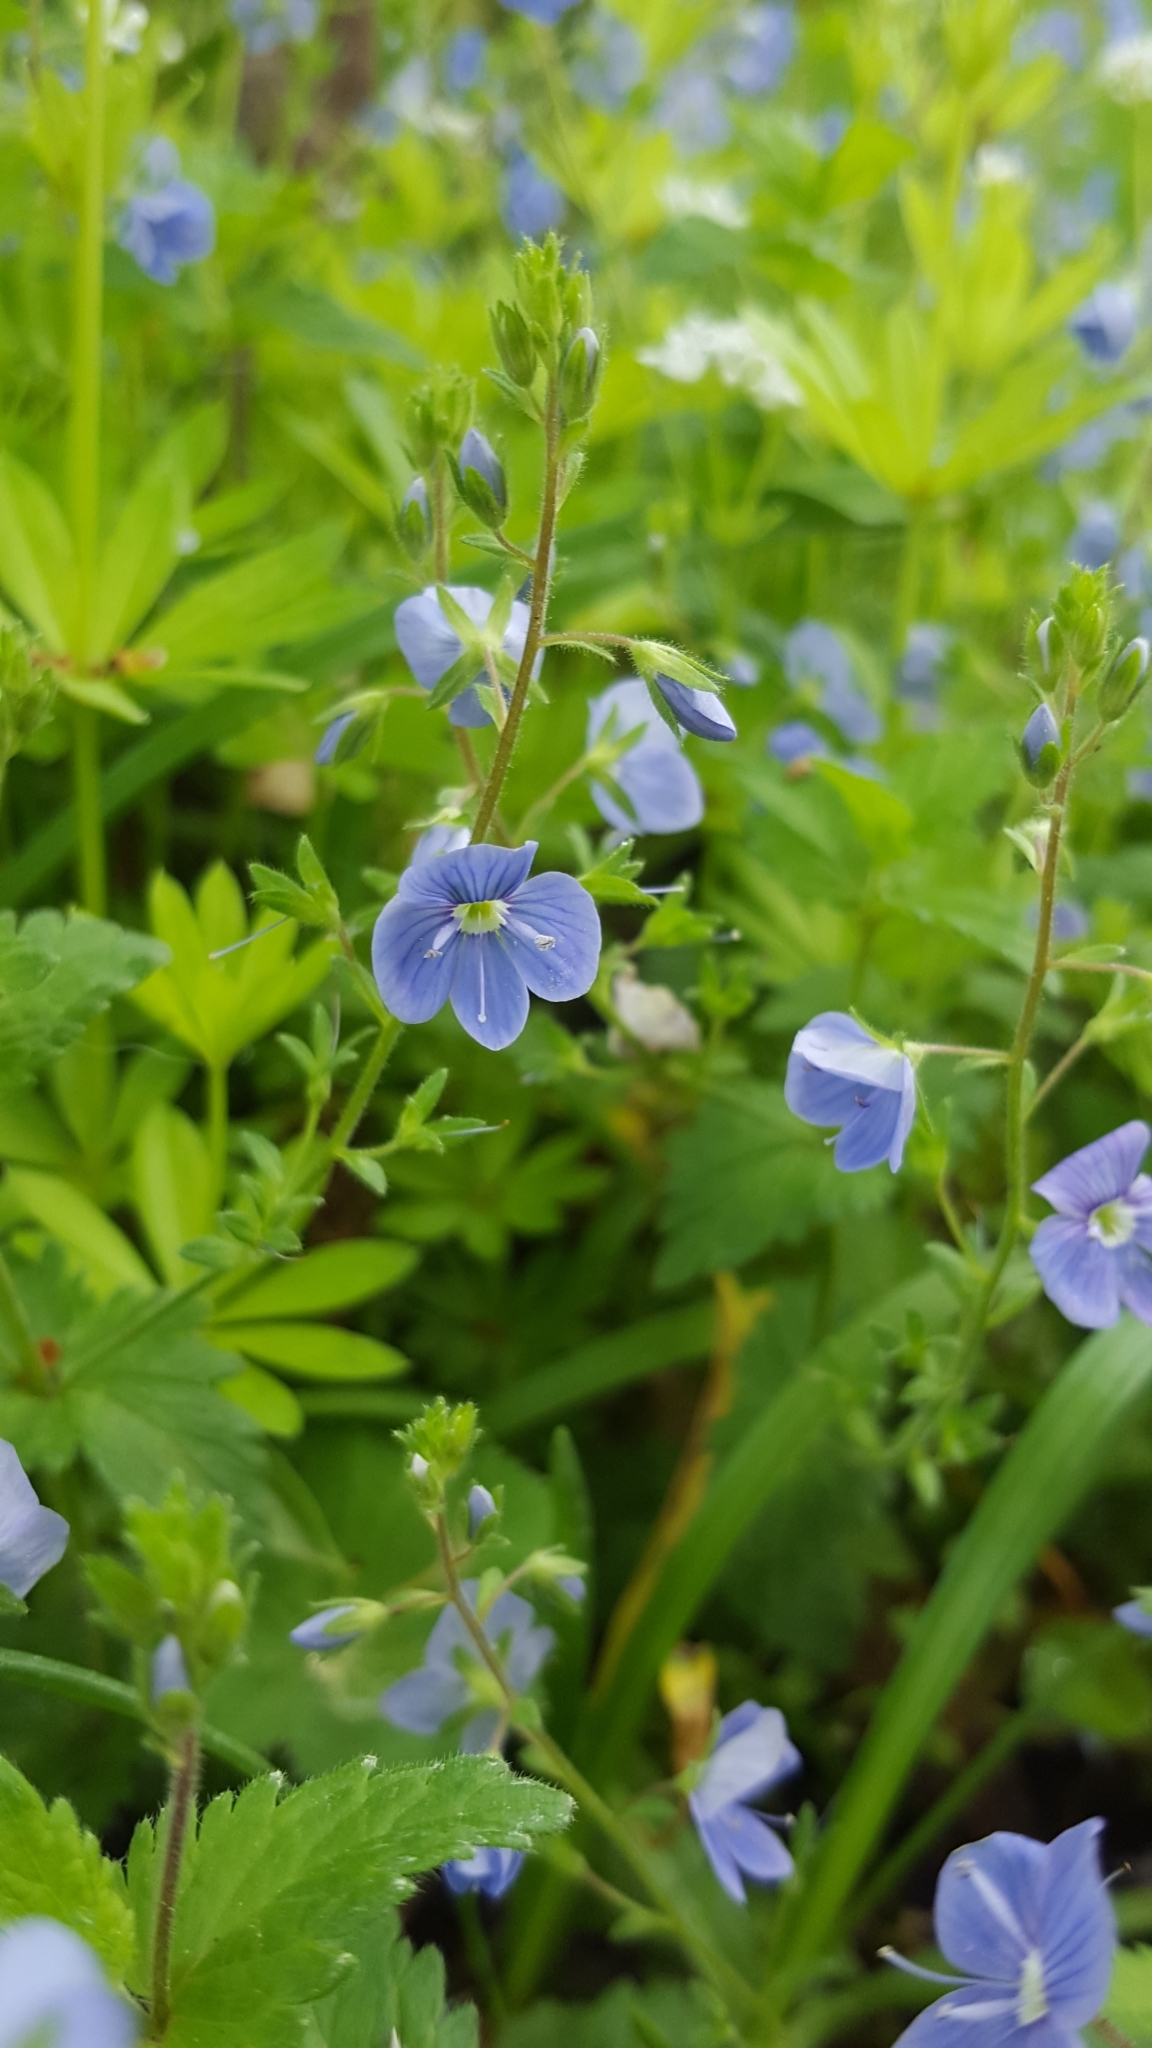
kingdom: Plantae
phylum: Tracheophyta
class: Magnoliopsida
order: Lamiales
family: Plantaginaceae
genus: Veronica
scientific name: Veronica chamaedrys
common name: Germander speedwell
